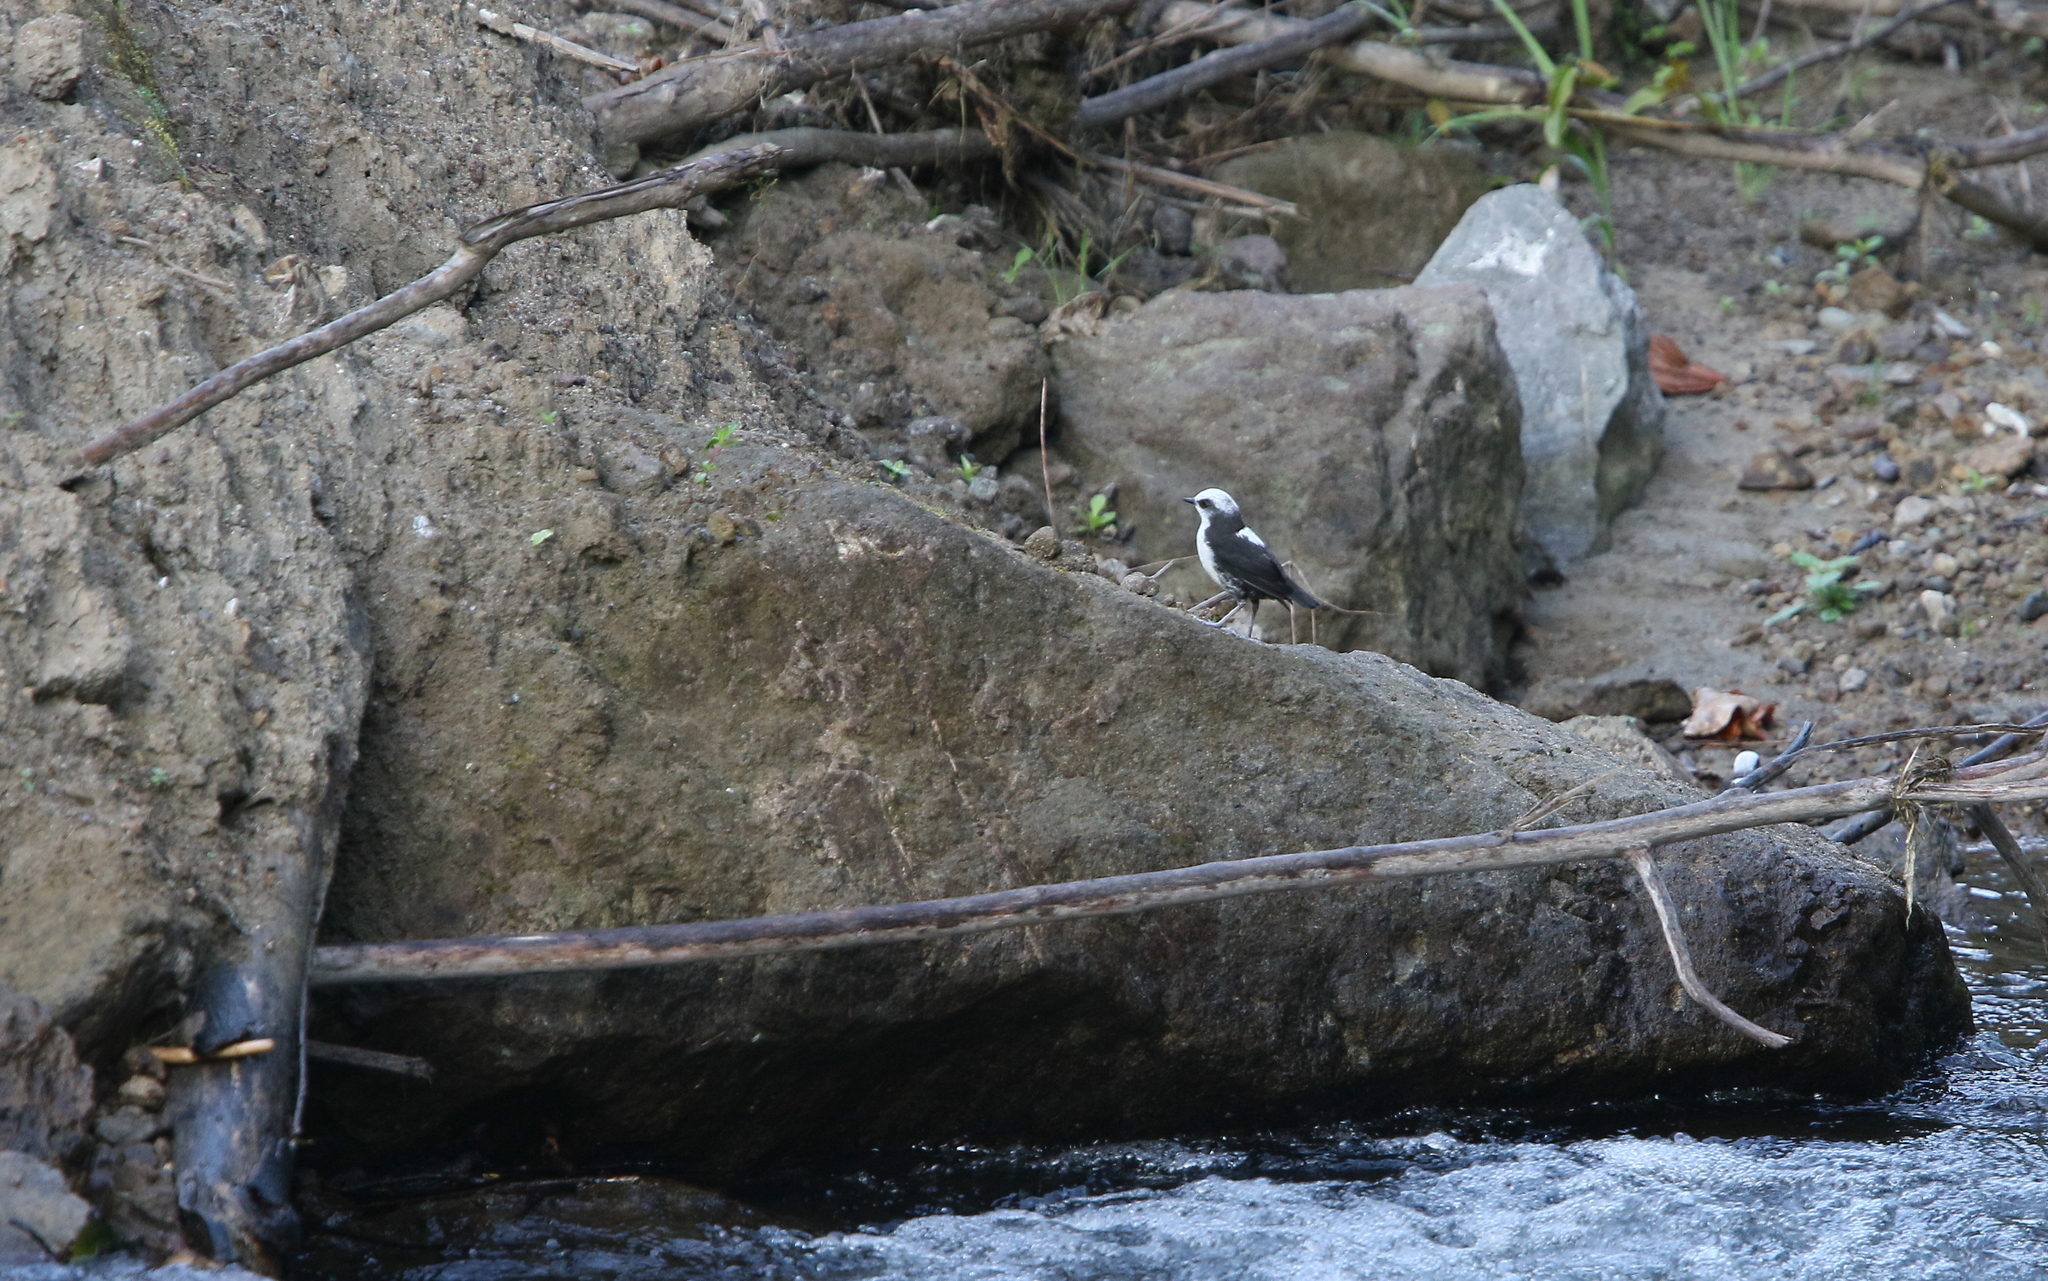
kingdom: Animalia
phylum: Chordata
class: Aves
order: Passeriformes
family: Cinclidae
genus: Cinclus
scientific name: Cinclus leucocephalus
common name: White-capped dipper
